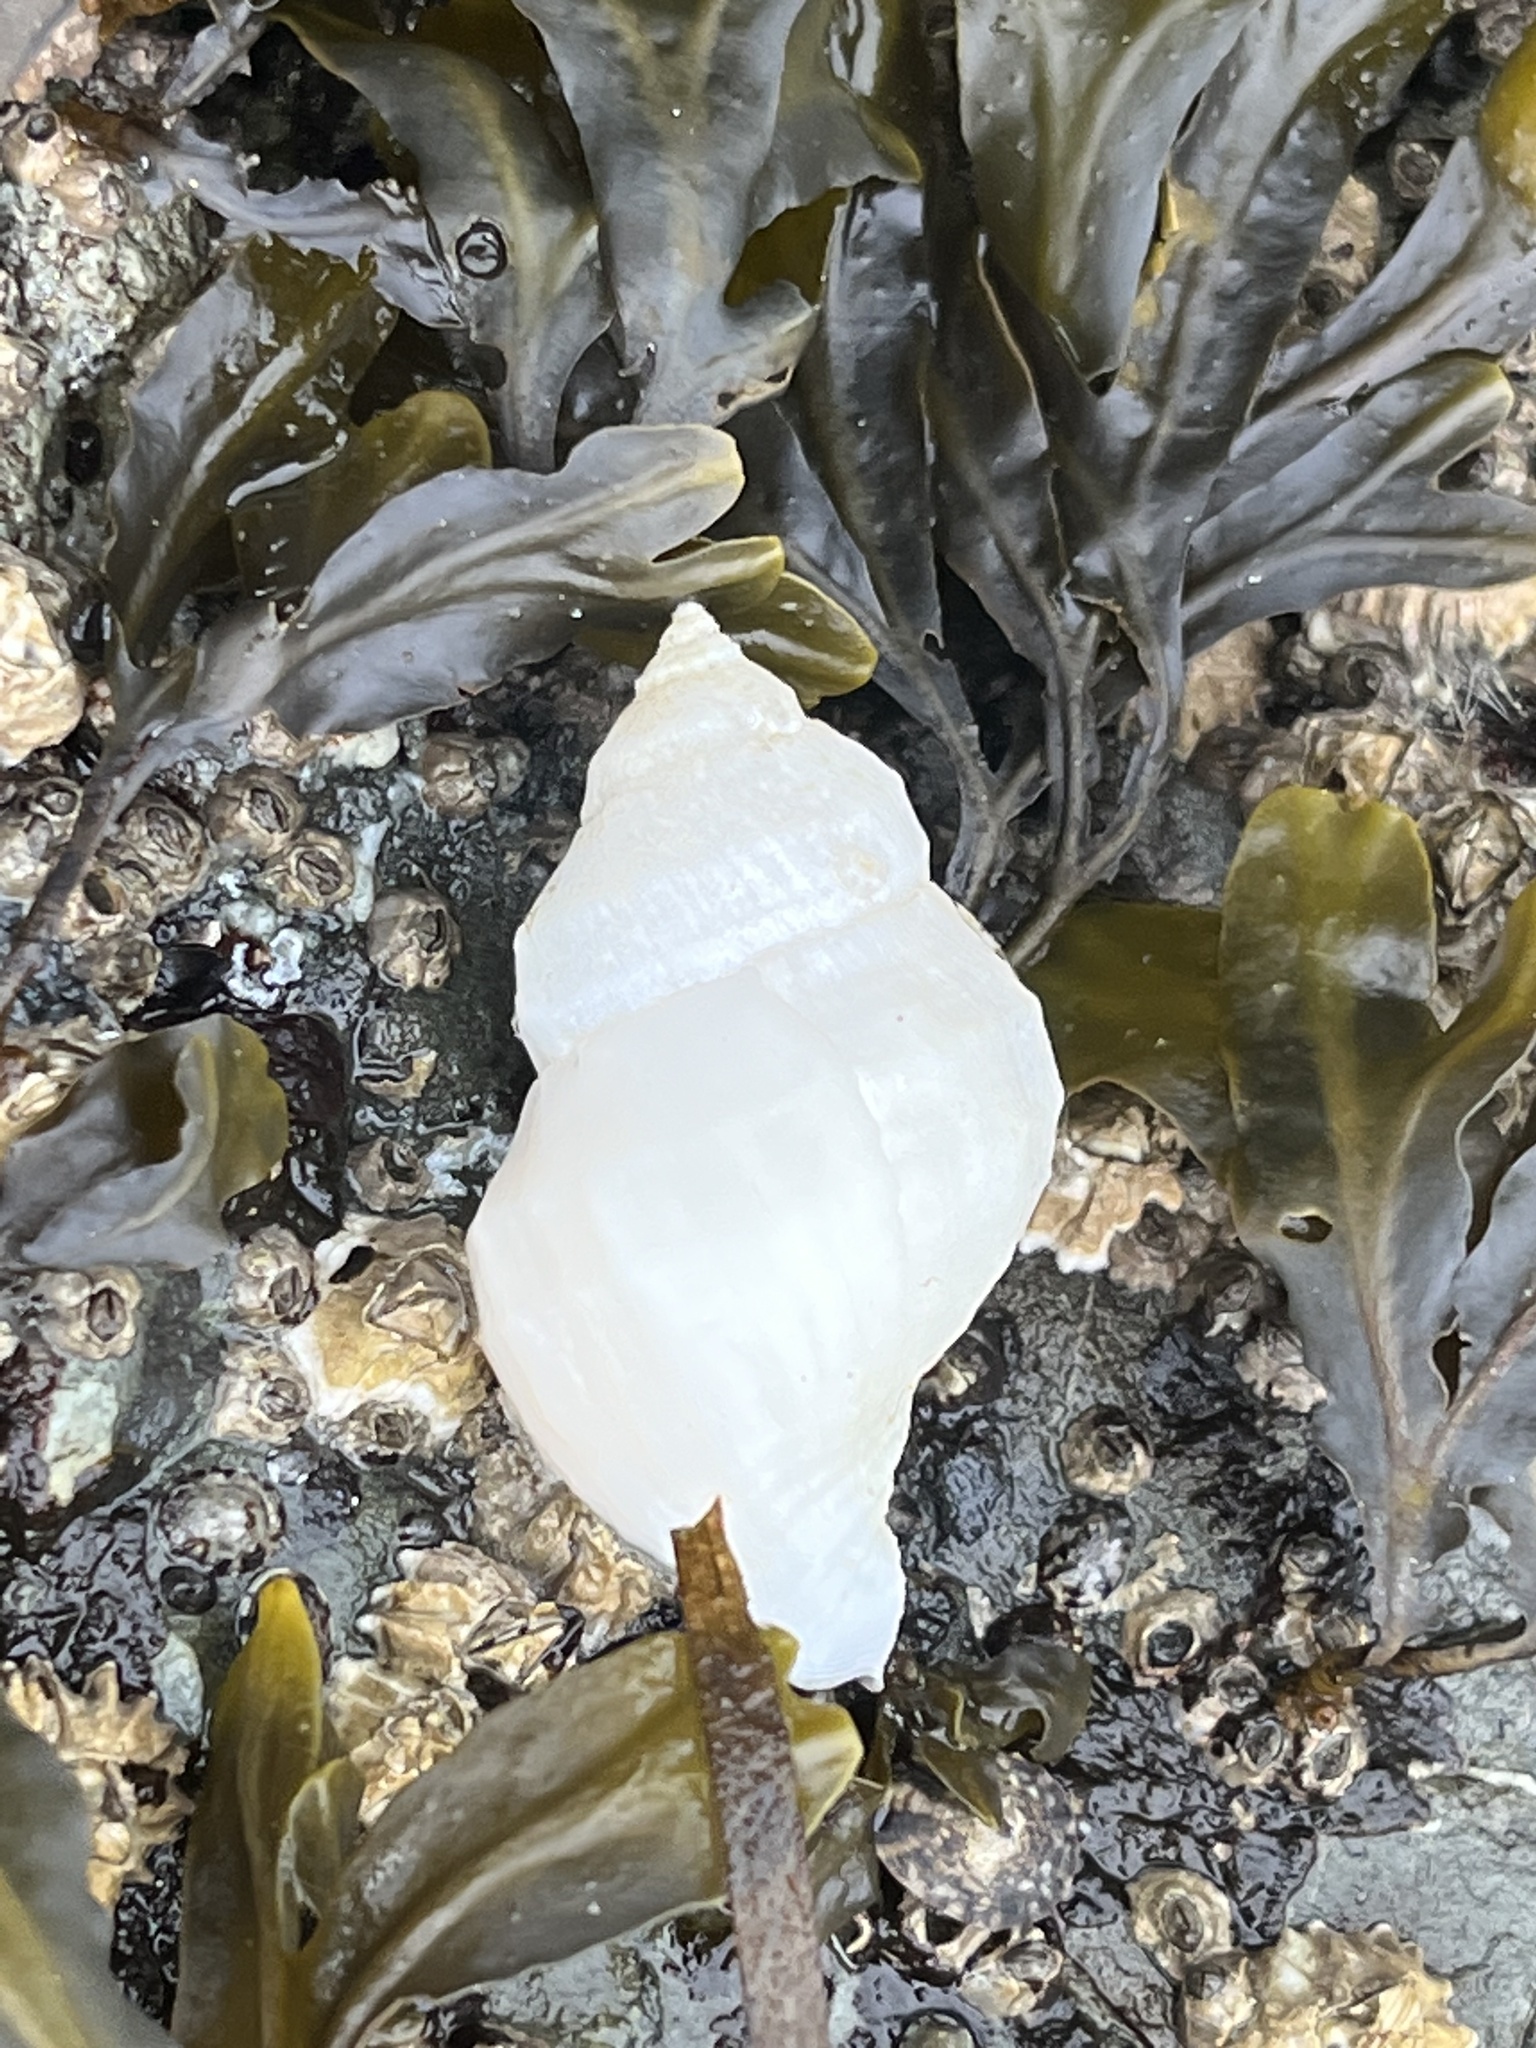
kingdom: Animalia
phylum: Mollusca
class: Gastropoda
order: Neogastropoda
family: Muricidae
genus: Nucella
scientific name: Nucella lamellosa
